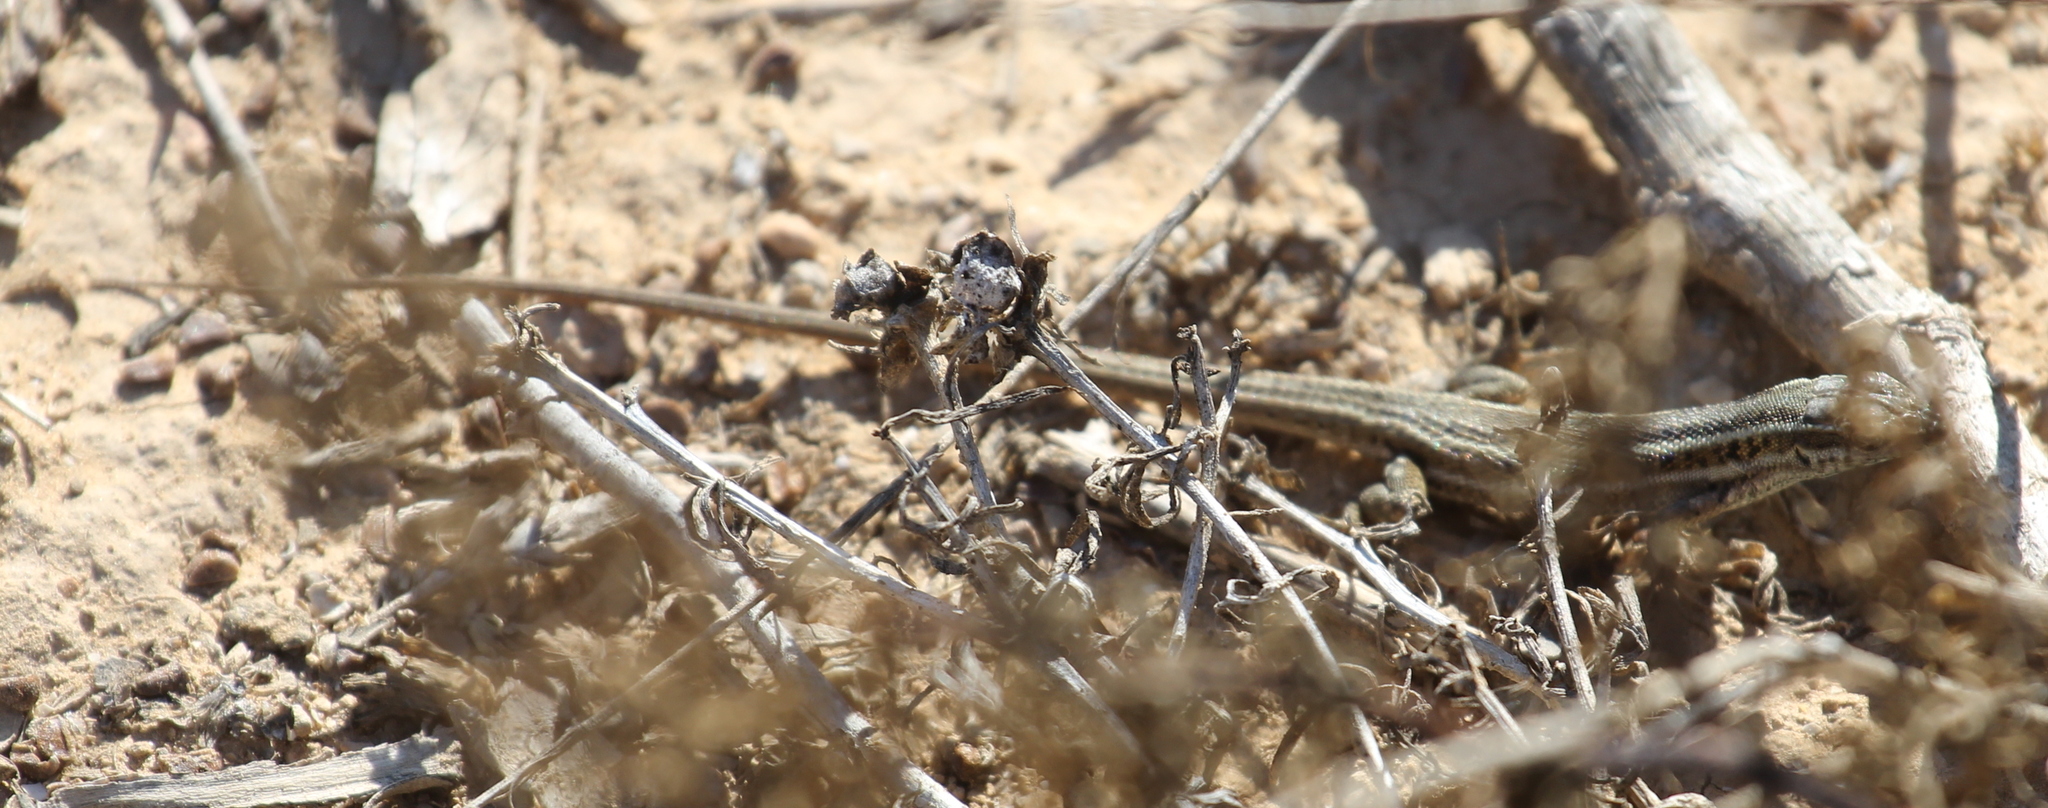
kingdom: Animalia
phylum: Chordata
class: Squamata
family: Lacertidae
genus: Ophisops
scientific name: Ophisops elegans
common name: Snake-eyed lizard
